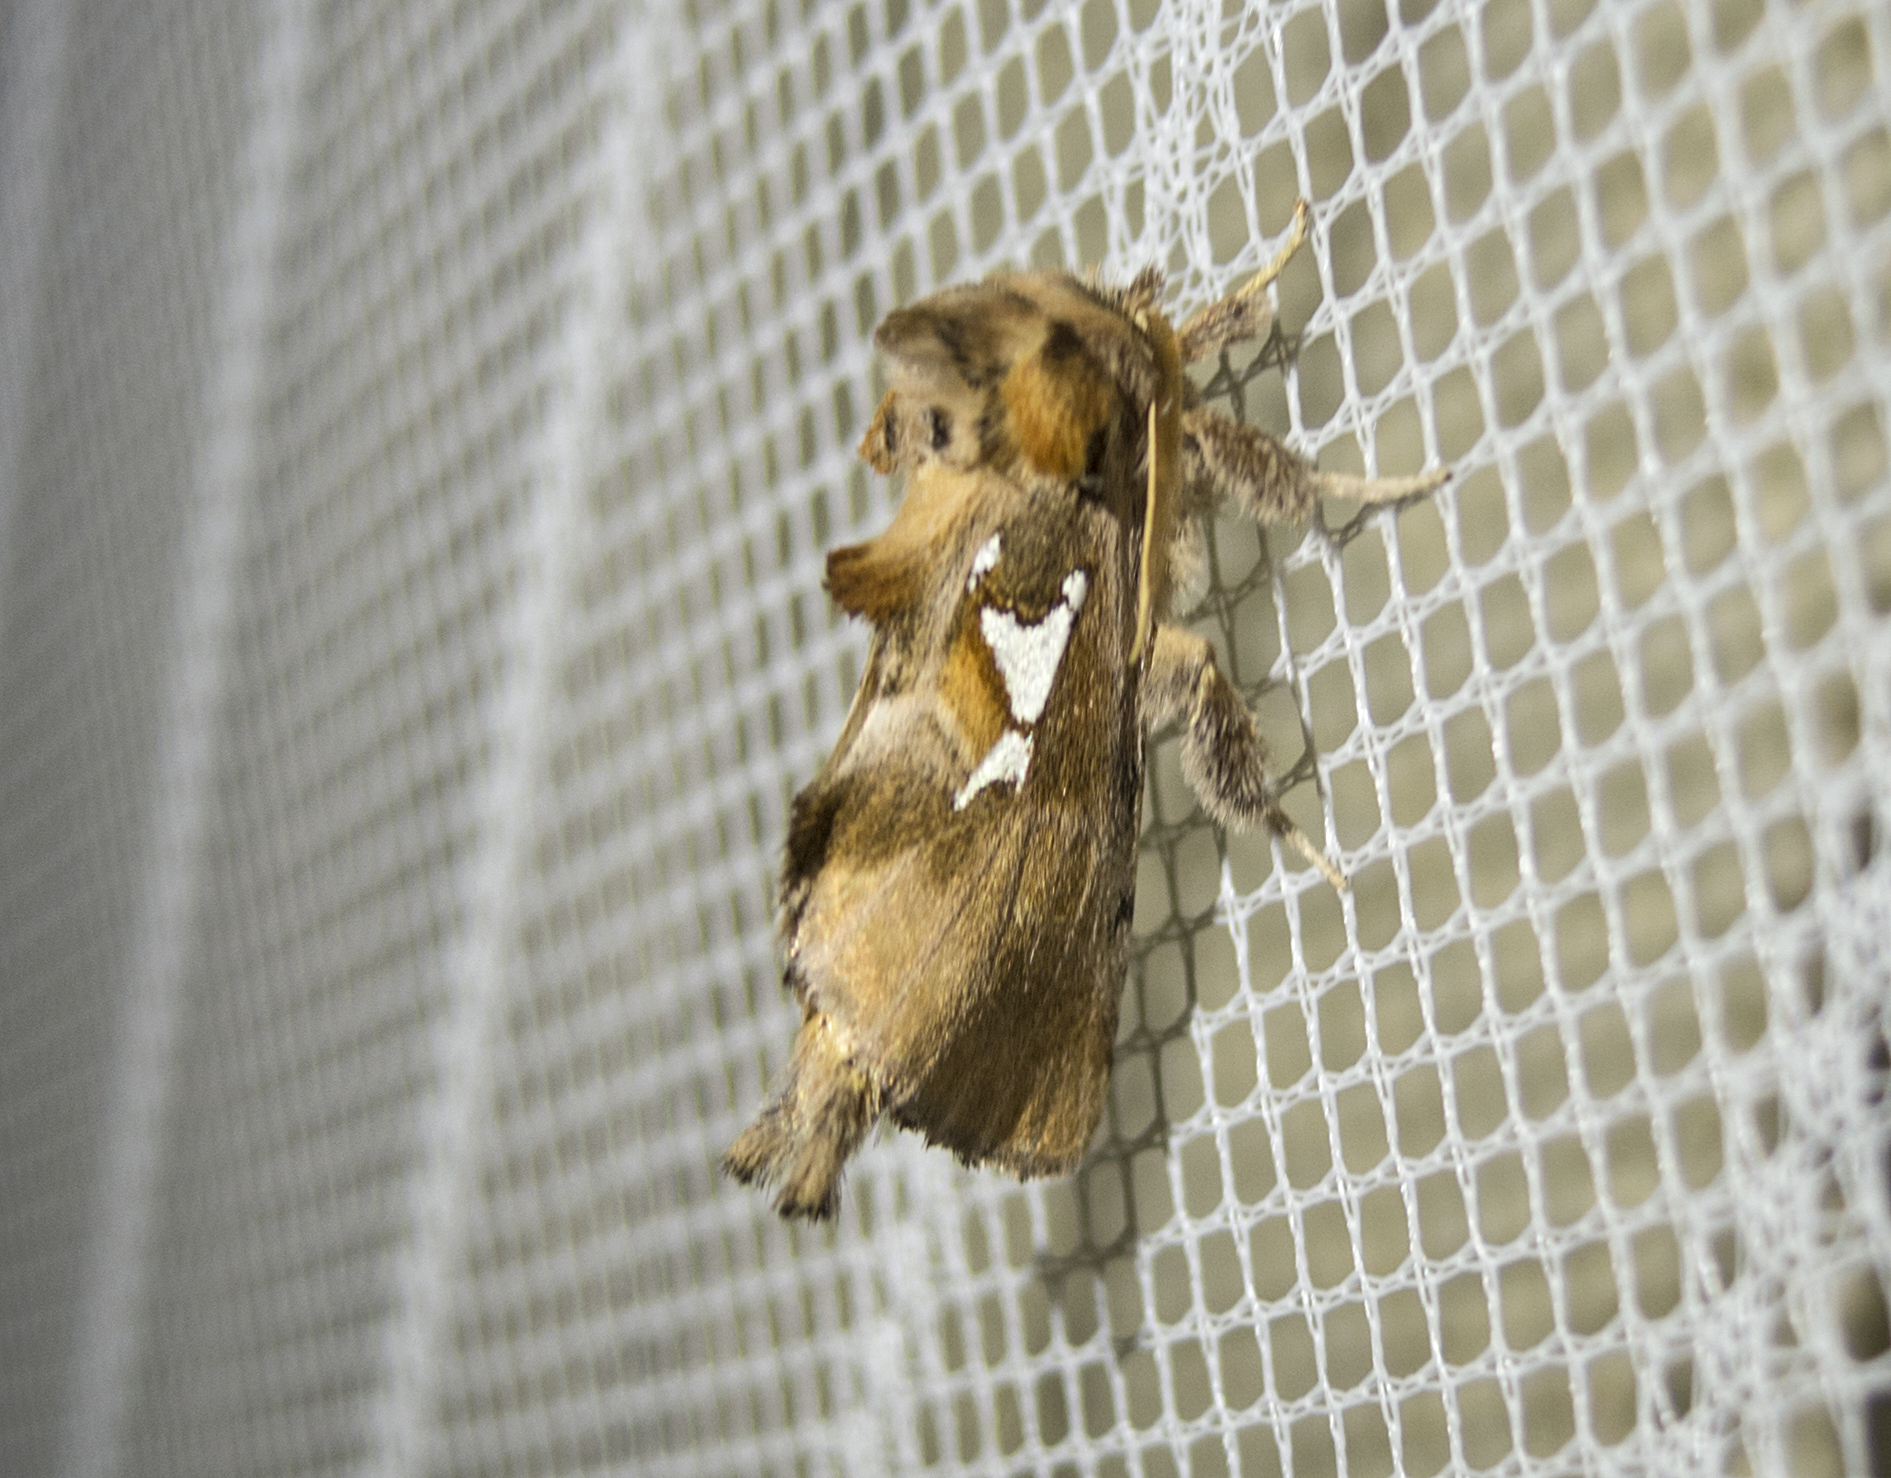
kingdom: Animalia
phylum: Arthropoda
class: Insecta
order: Lepidoptera
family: Notodontidae
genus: Spatalia
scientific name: Spatalia argentina
